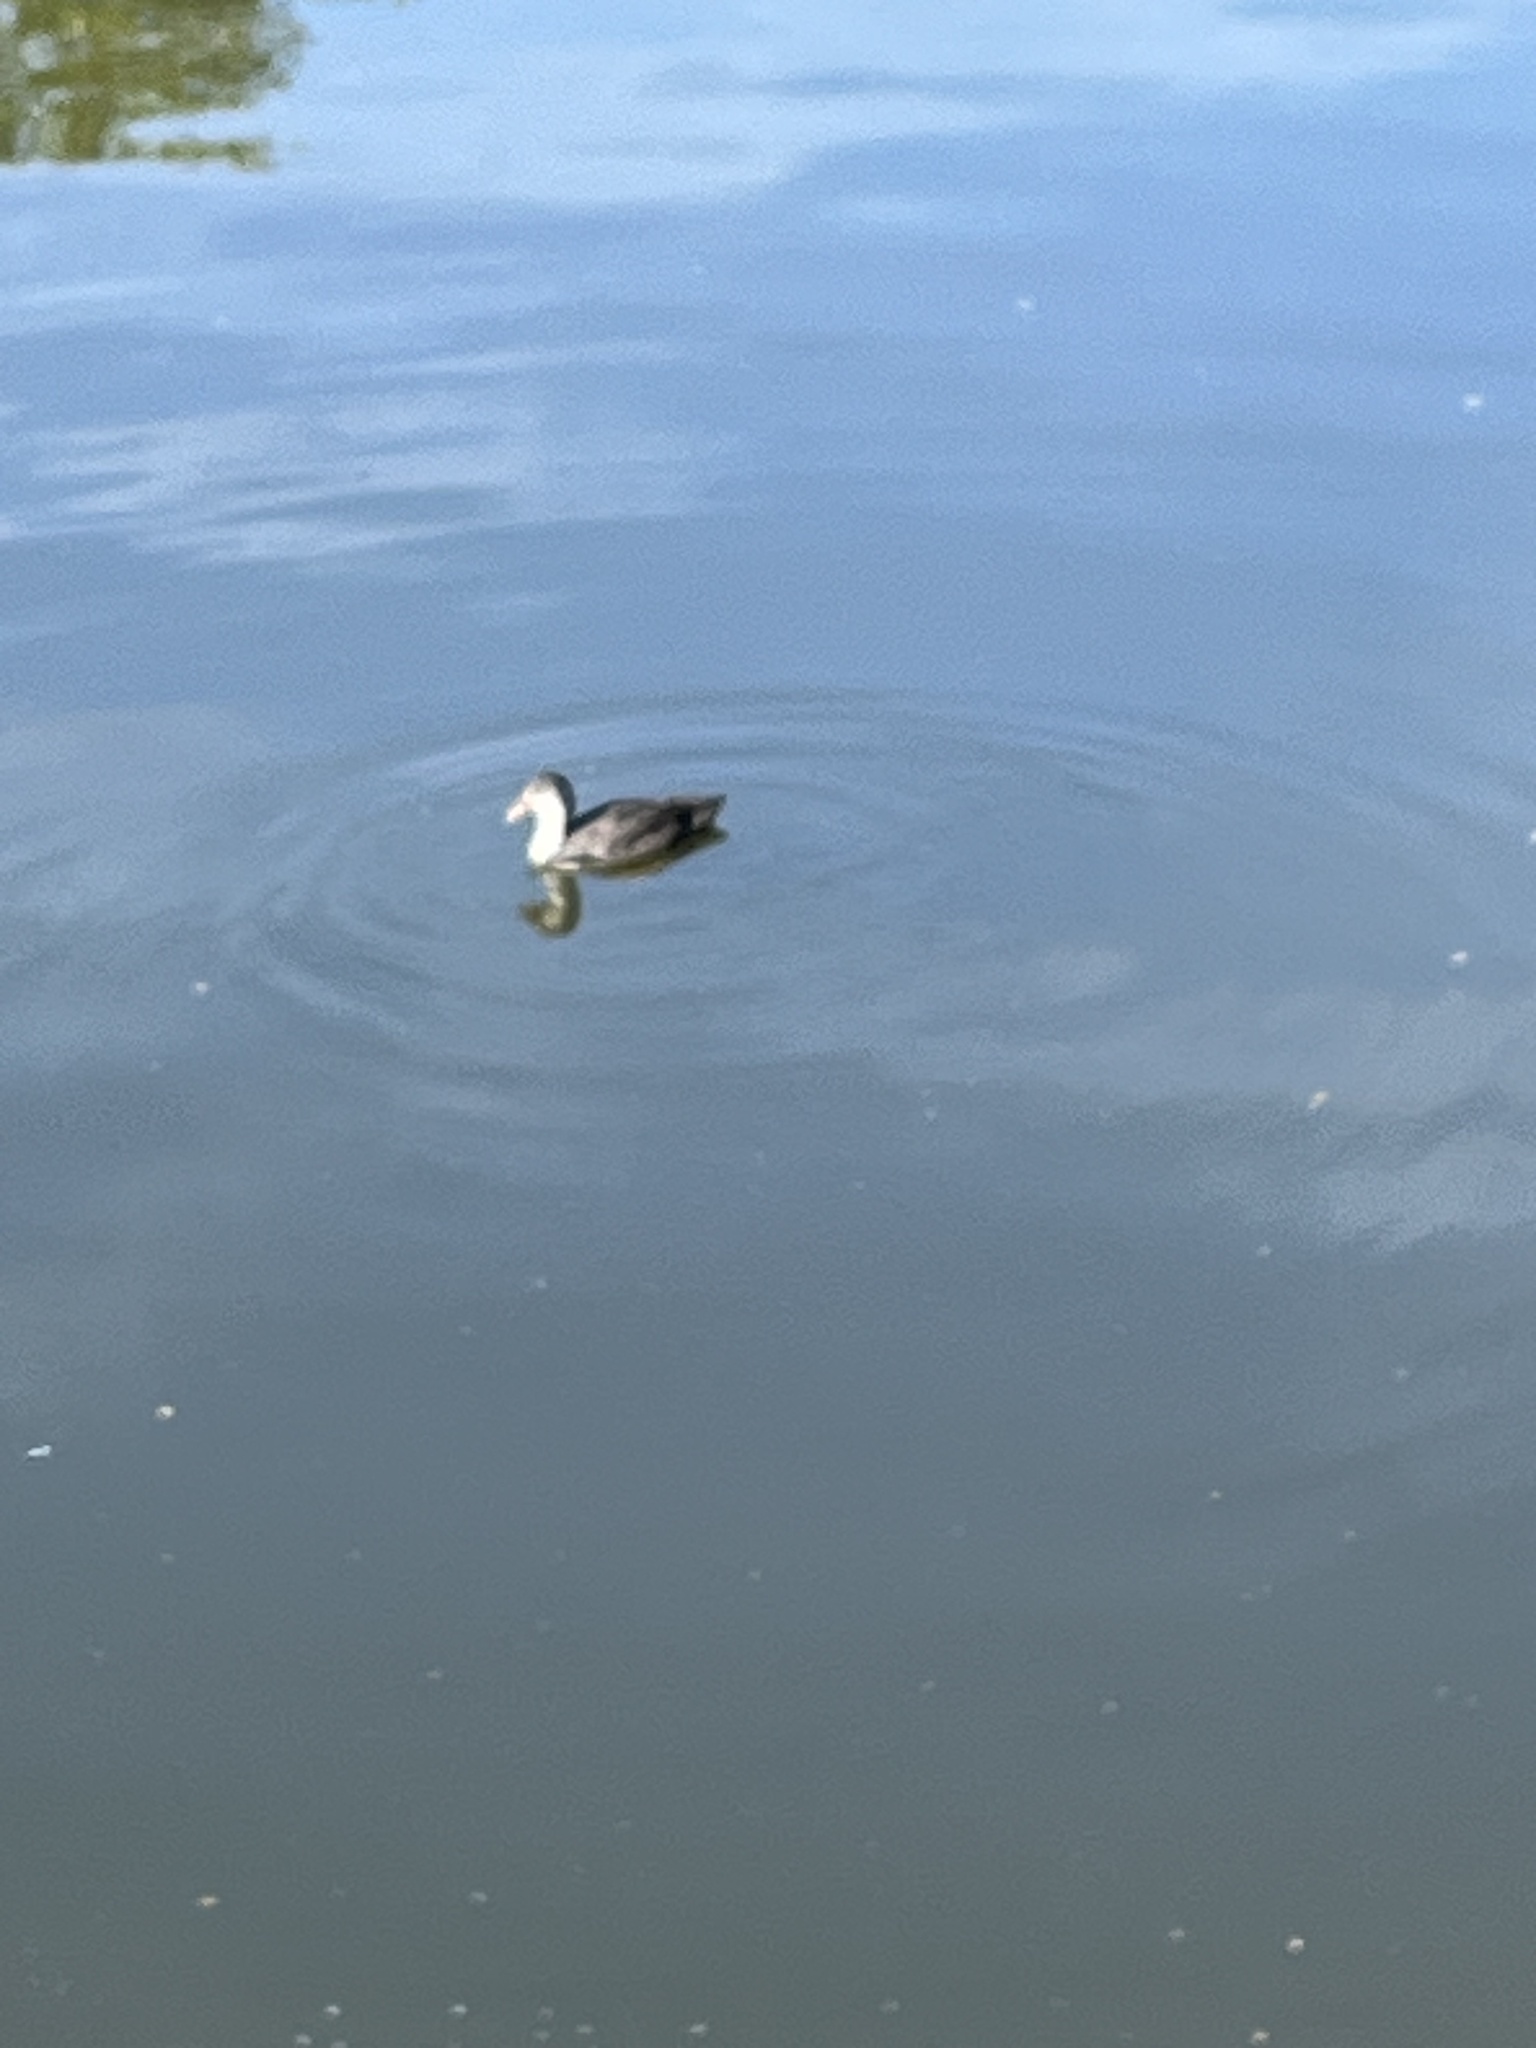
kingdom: Animalia
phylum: Chordata
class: Aves
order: Gruiformes
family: Rallidae
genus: Fulica
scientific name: Fulica atra
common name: Eurasian coot
